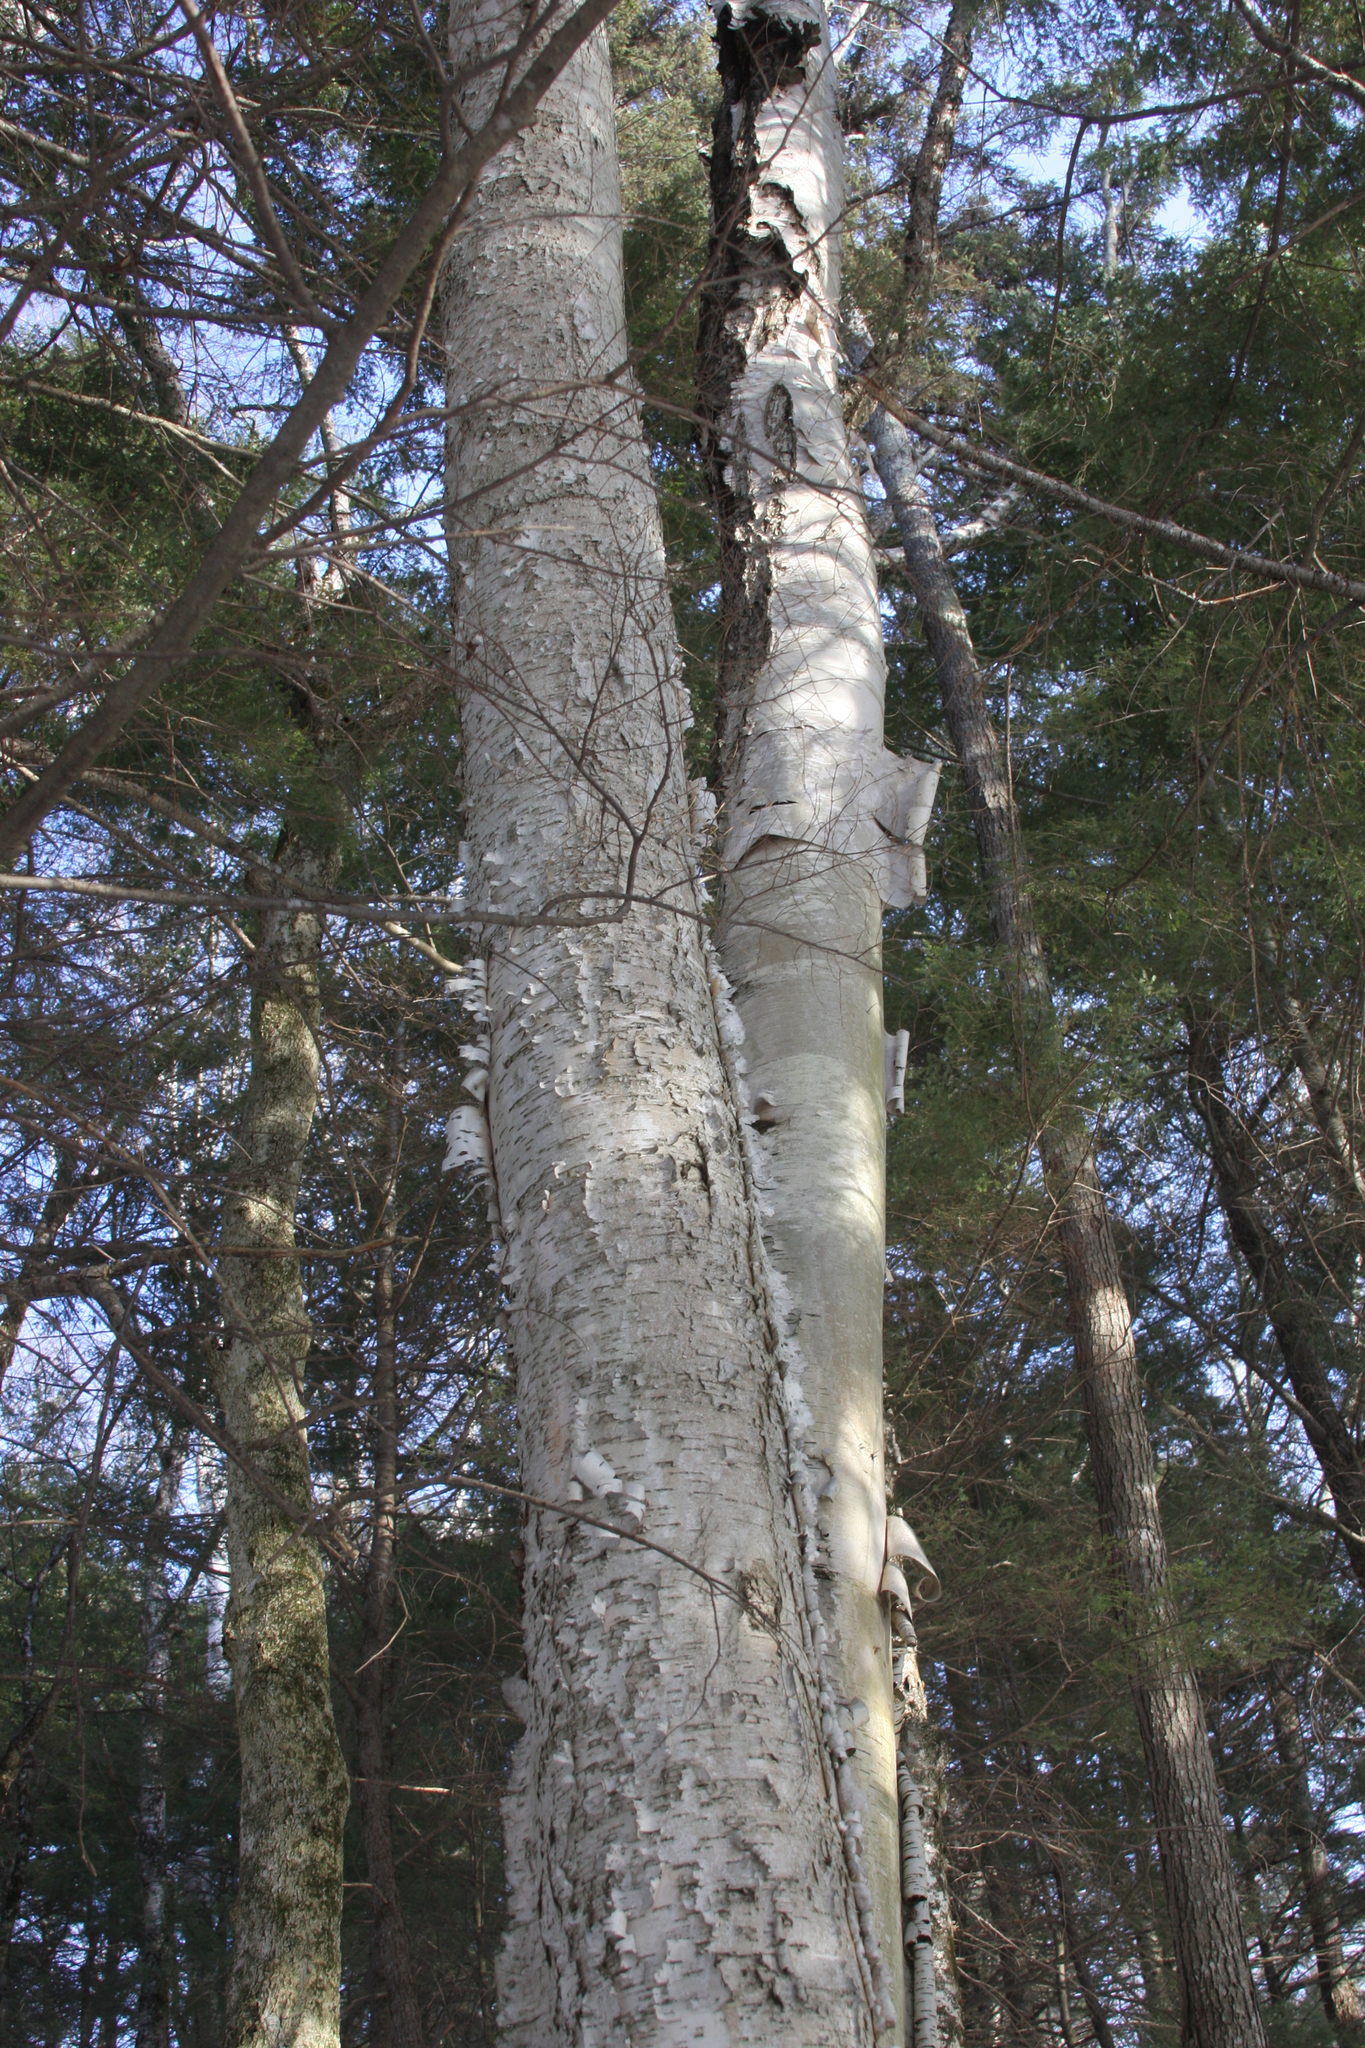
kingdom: Plantae
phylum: Tracheophyta
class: Magnoliopsida
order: Fagales
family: Betulaceae
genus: Betula
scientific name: Betula papyrifera
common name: Paper birch
